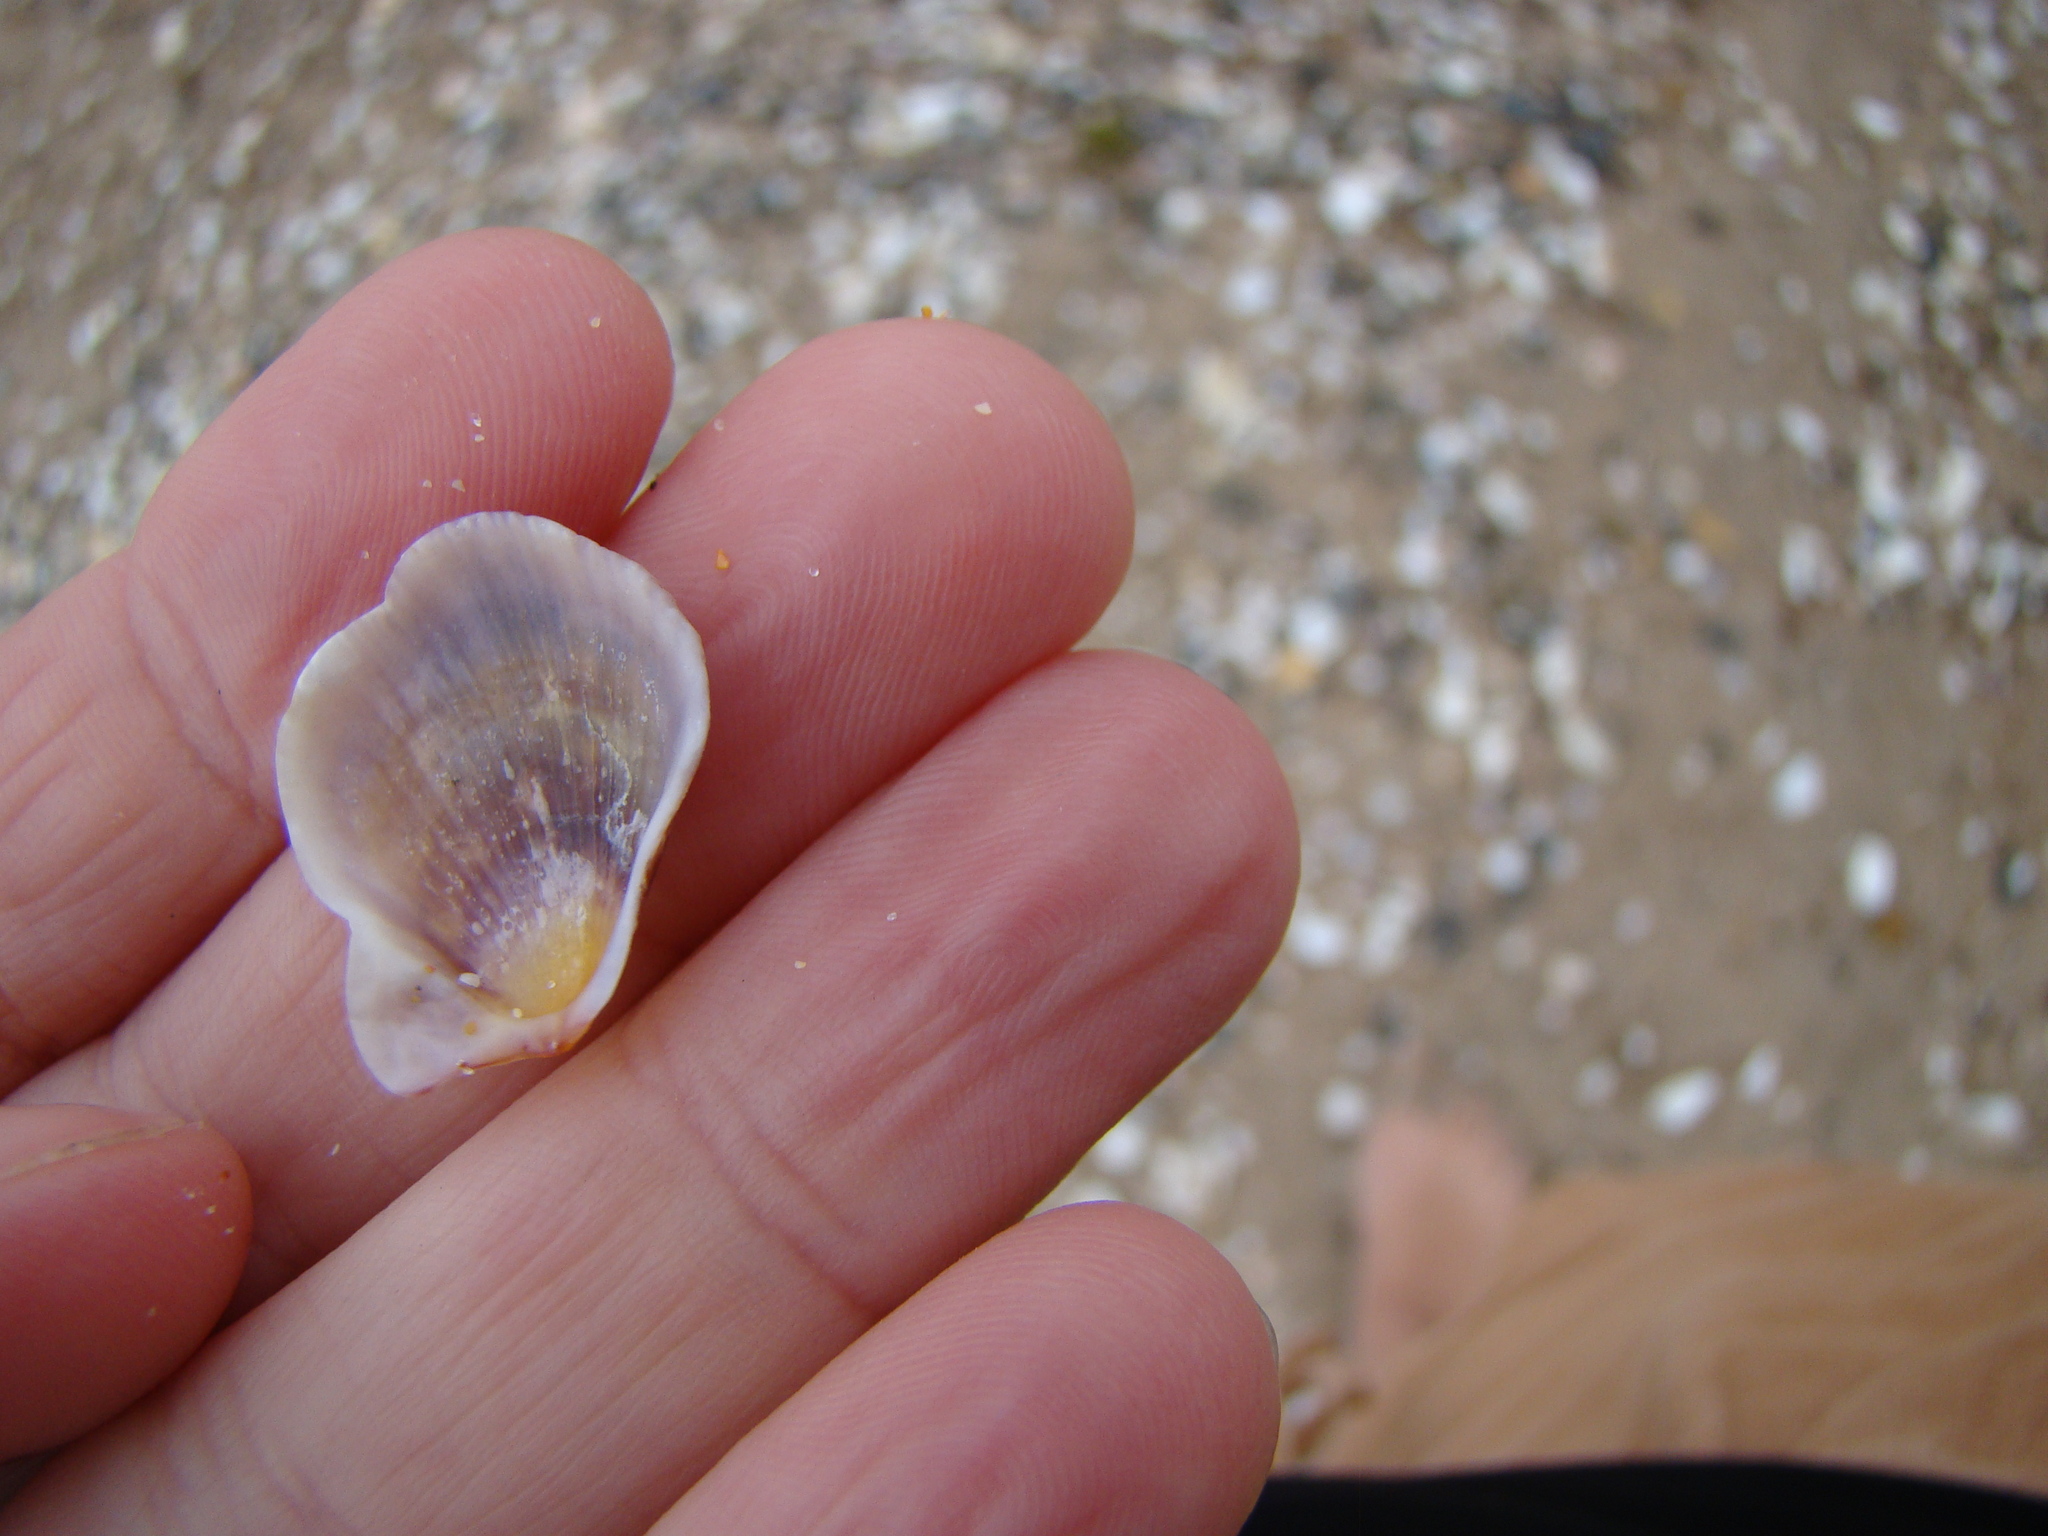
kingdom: Animalia
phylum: Mollusca
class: Bivalvia
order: Pectinida
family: Pectinidae
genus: Talochlamys
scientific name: Talochlamys zelandiae
